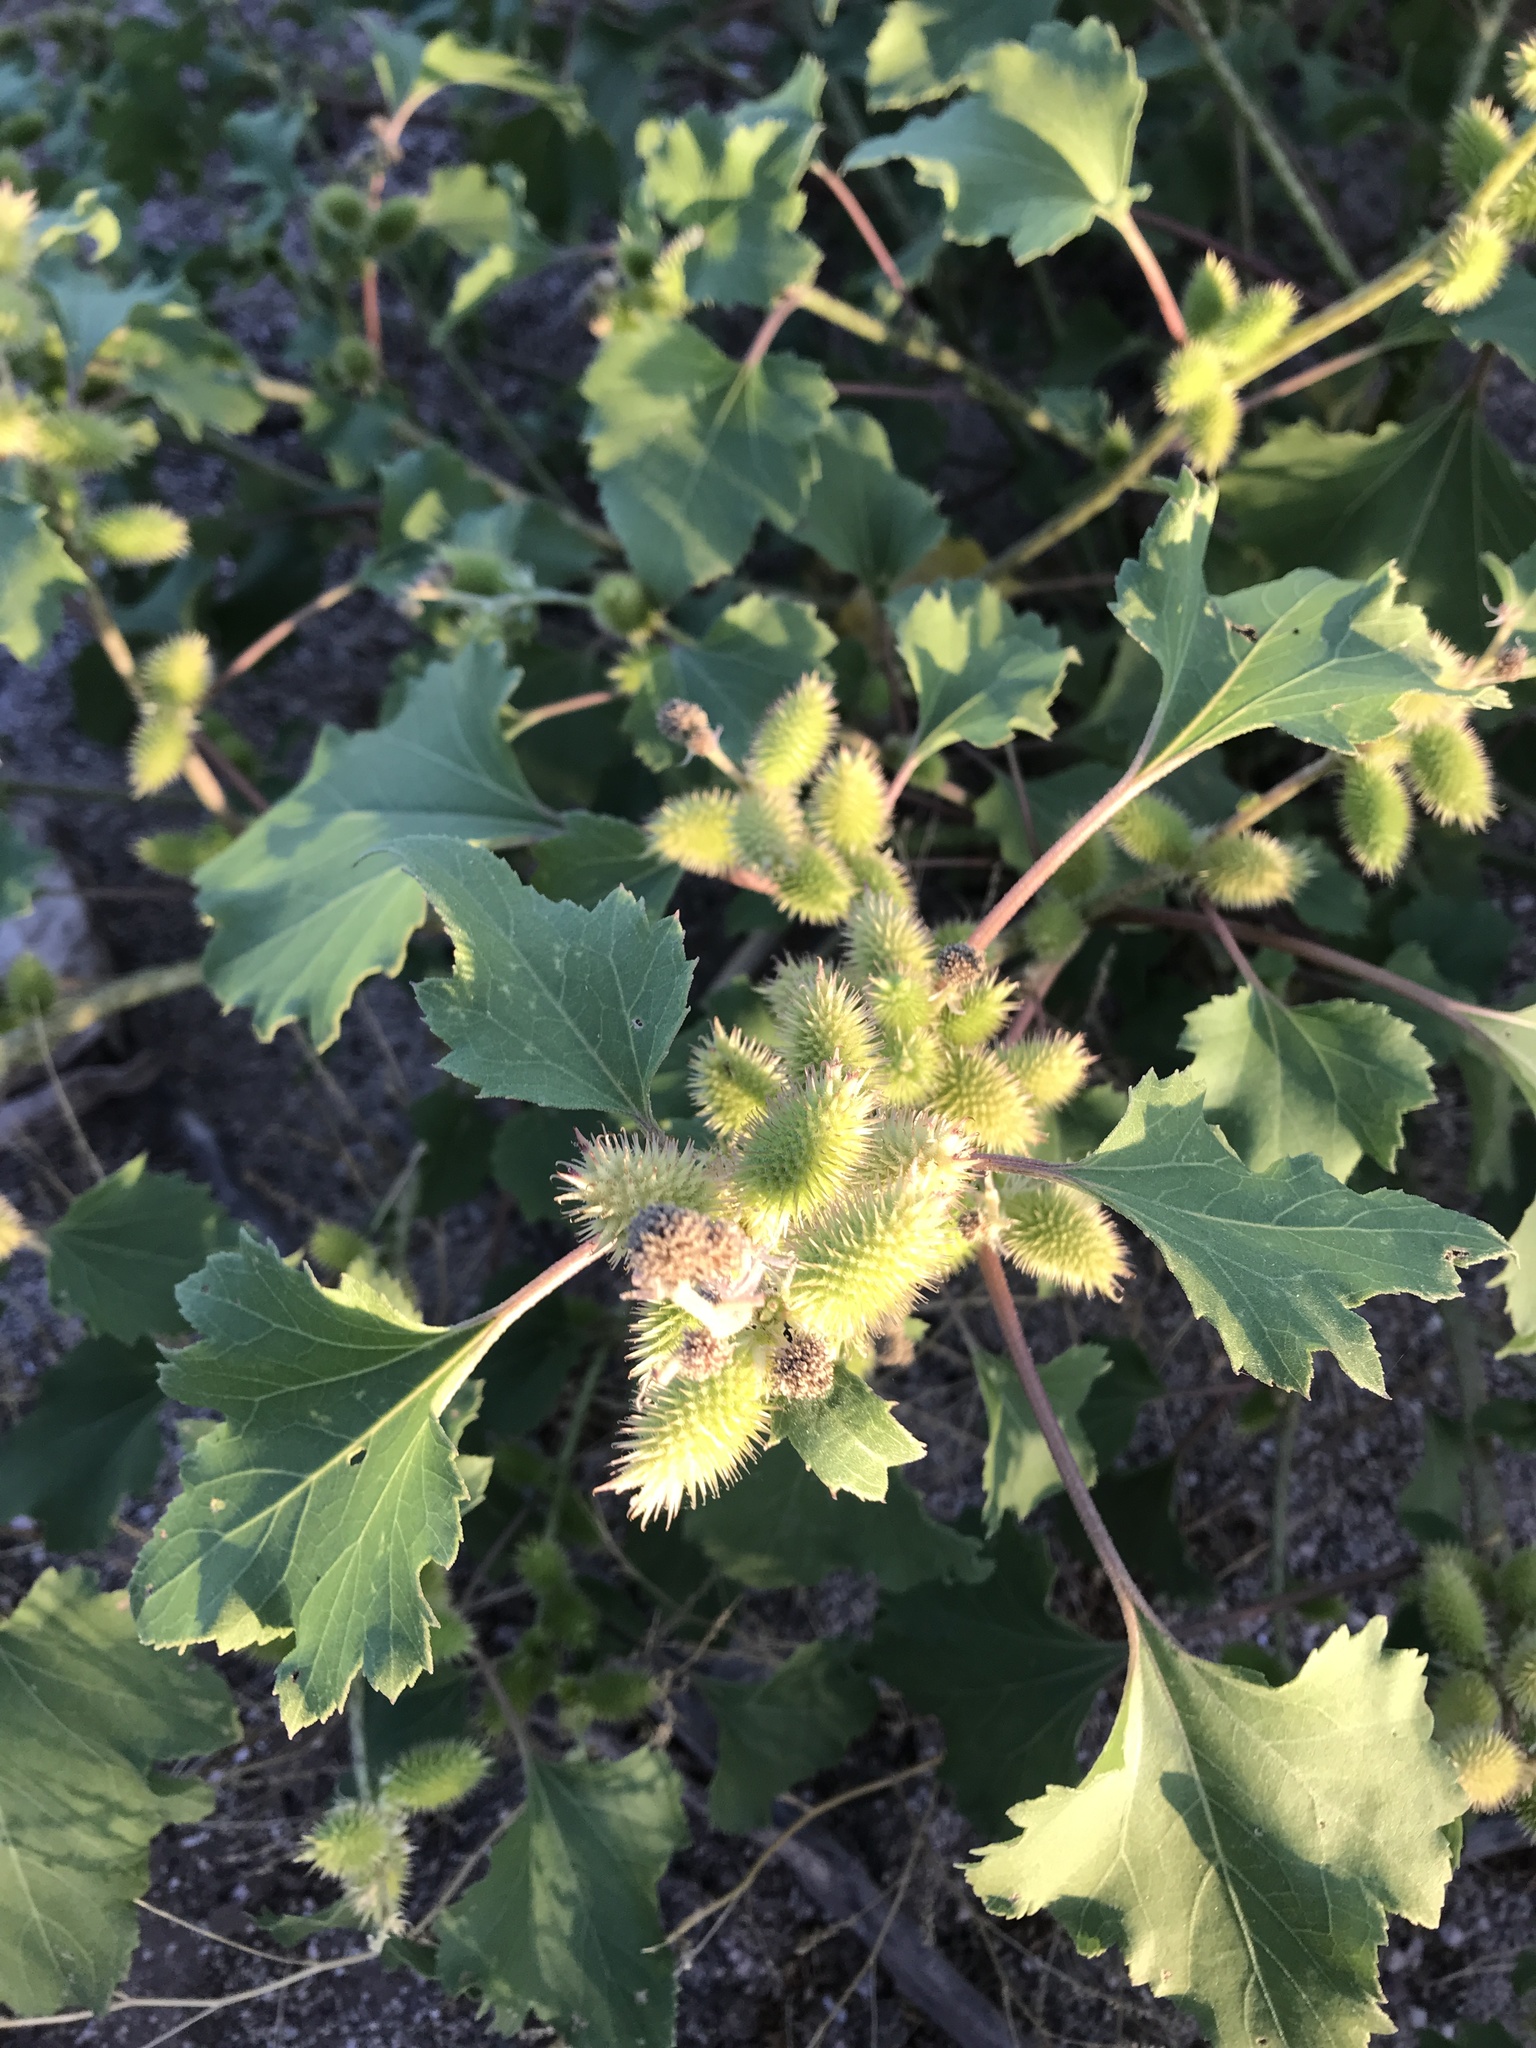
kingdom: Plantae
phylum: Tracheophyta
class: Magnoliopsida
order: Asterales
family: Asteraceae
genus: Xanthium
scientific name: Xanthium strumarium
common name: Rough cocklebur
